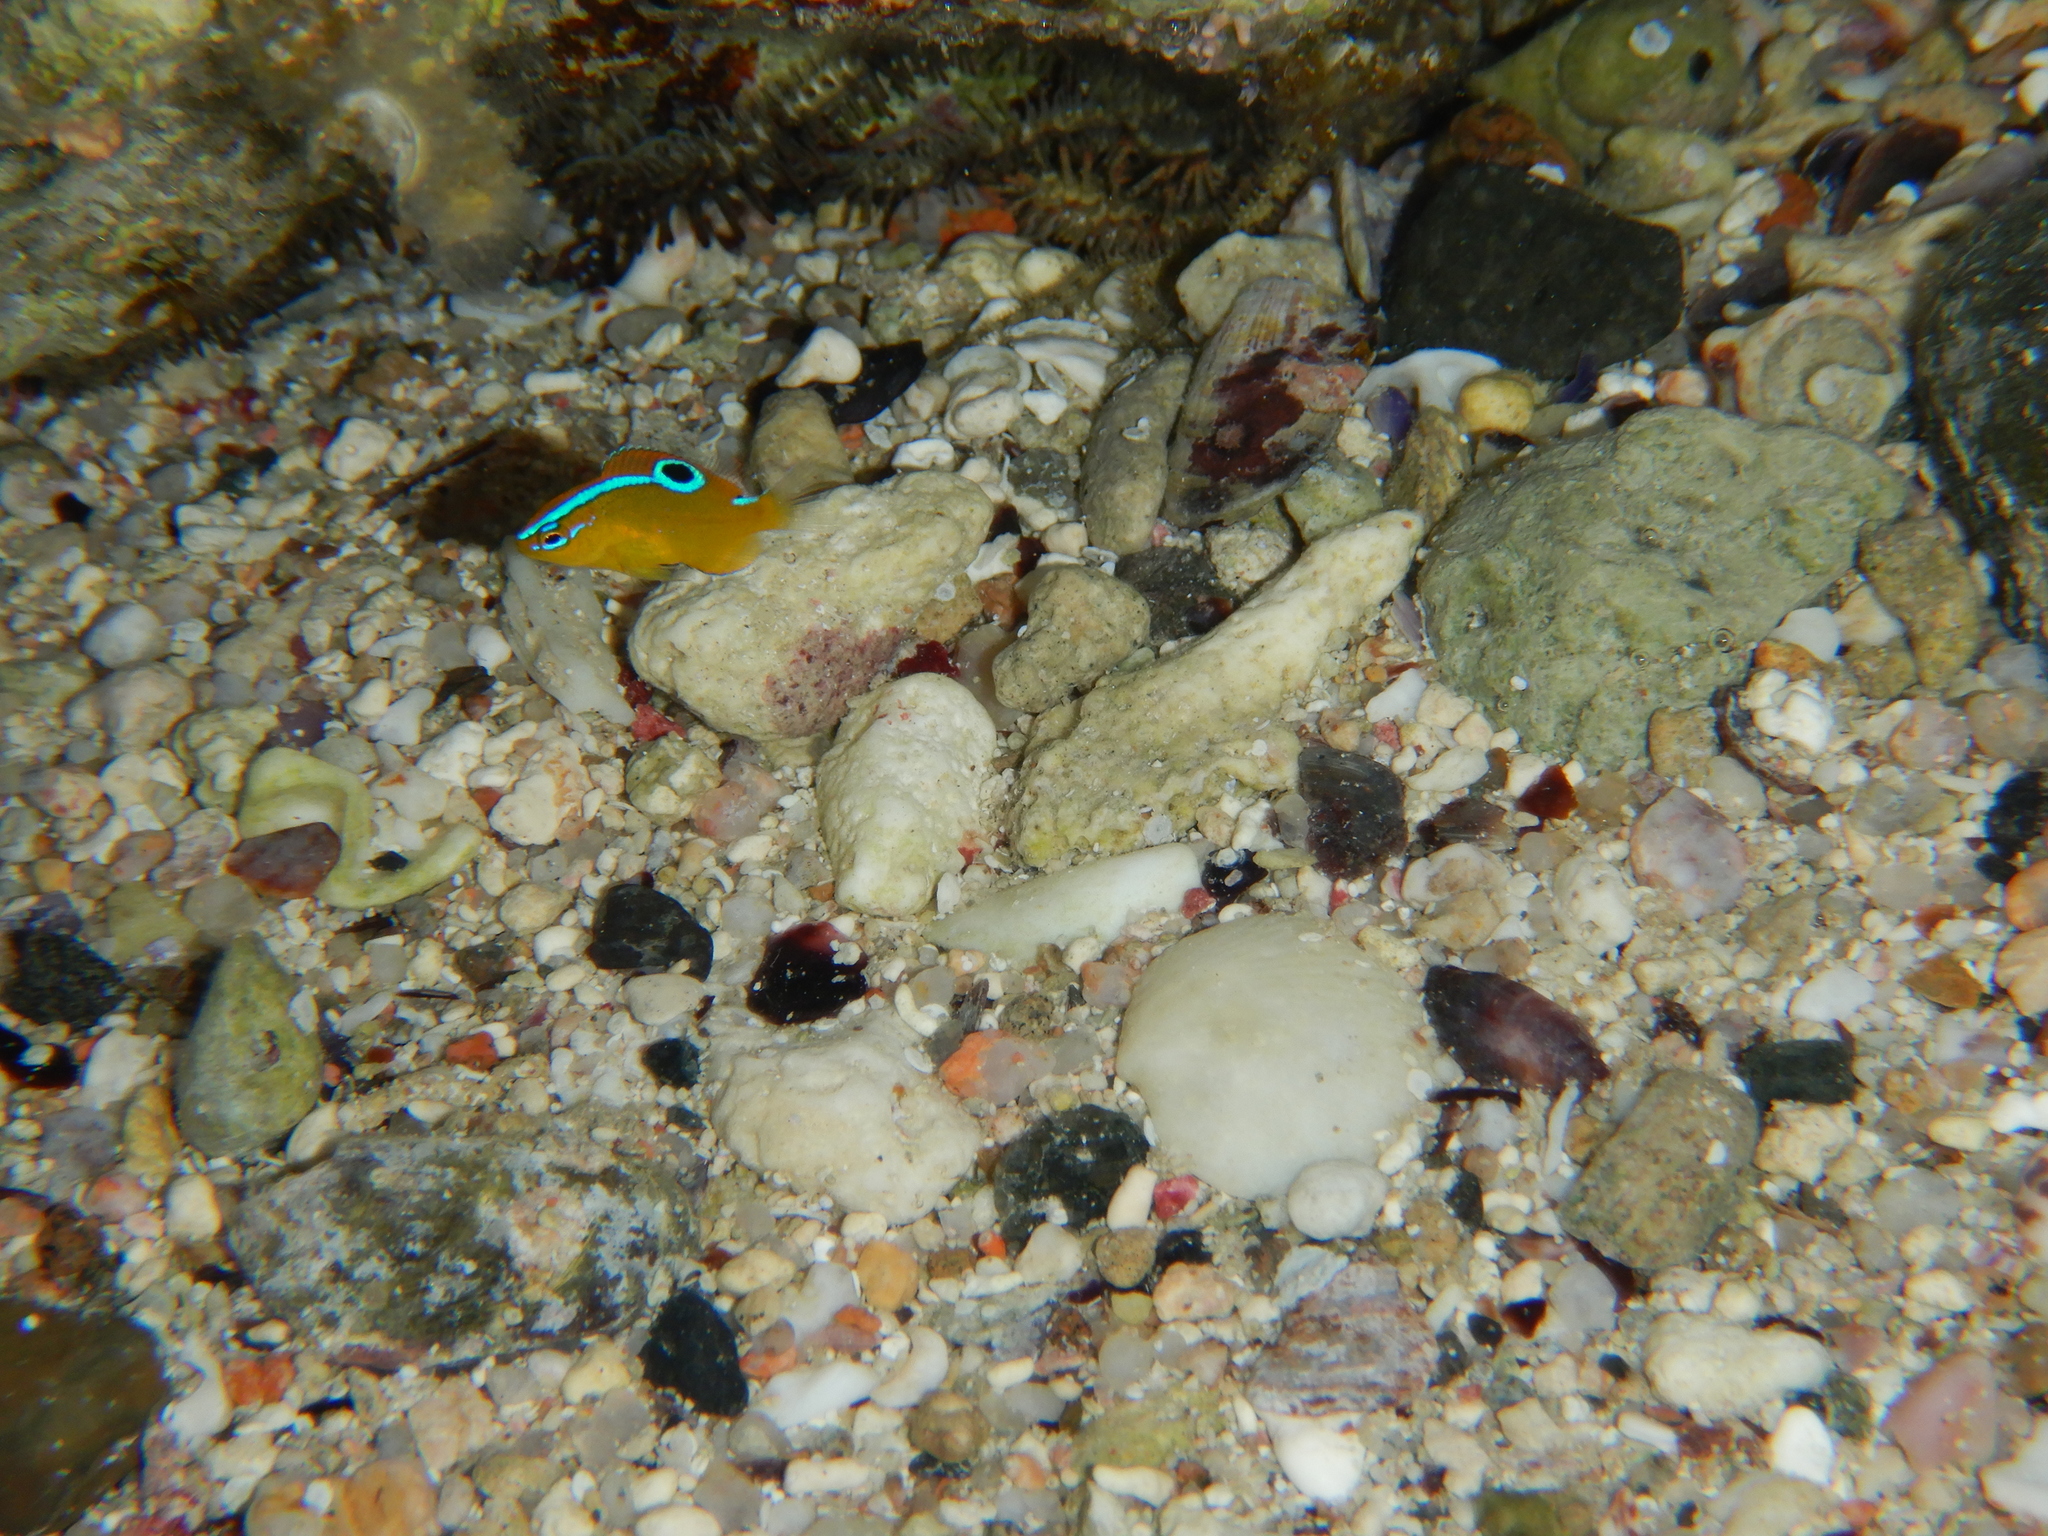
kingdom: Animalia
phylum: Chordata
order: Perciformes
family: Pomacentridae
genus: Chrysiptera
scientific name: Chrysiptera unimaculata
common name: Onespot demoiselle
